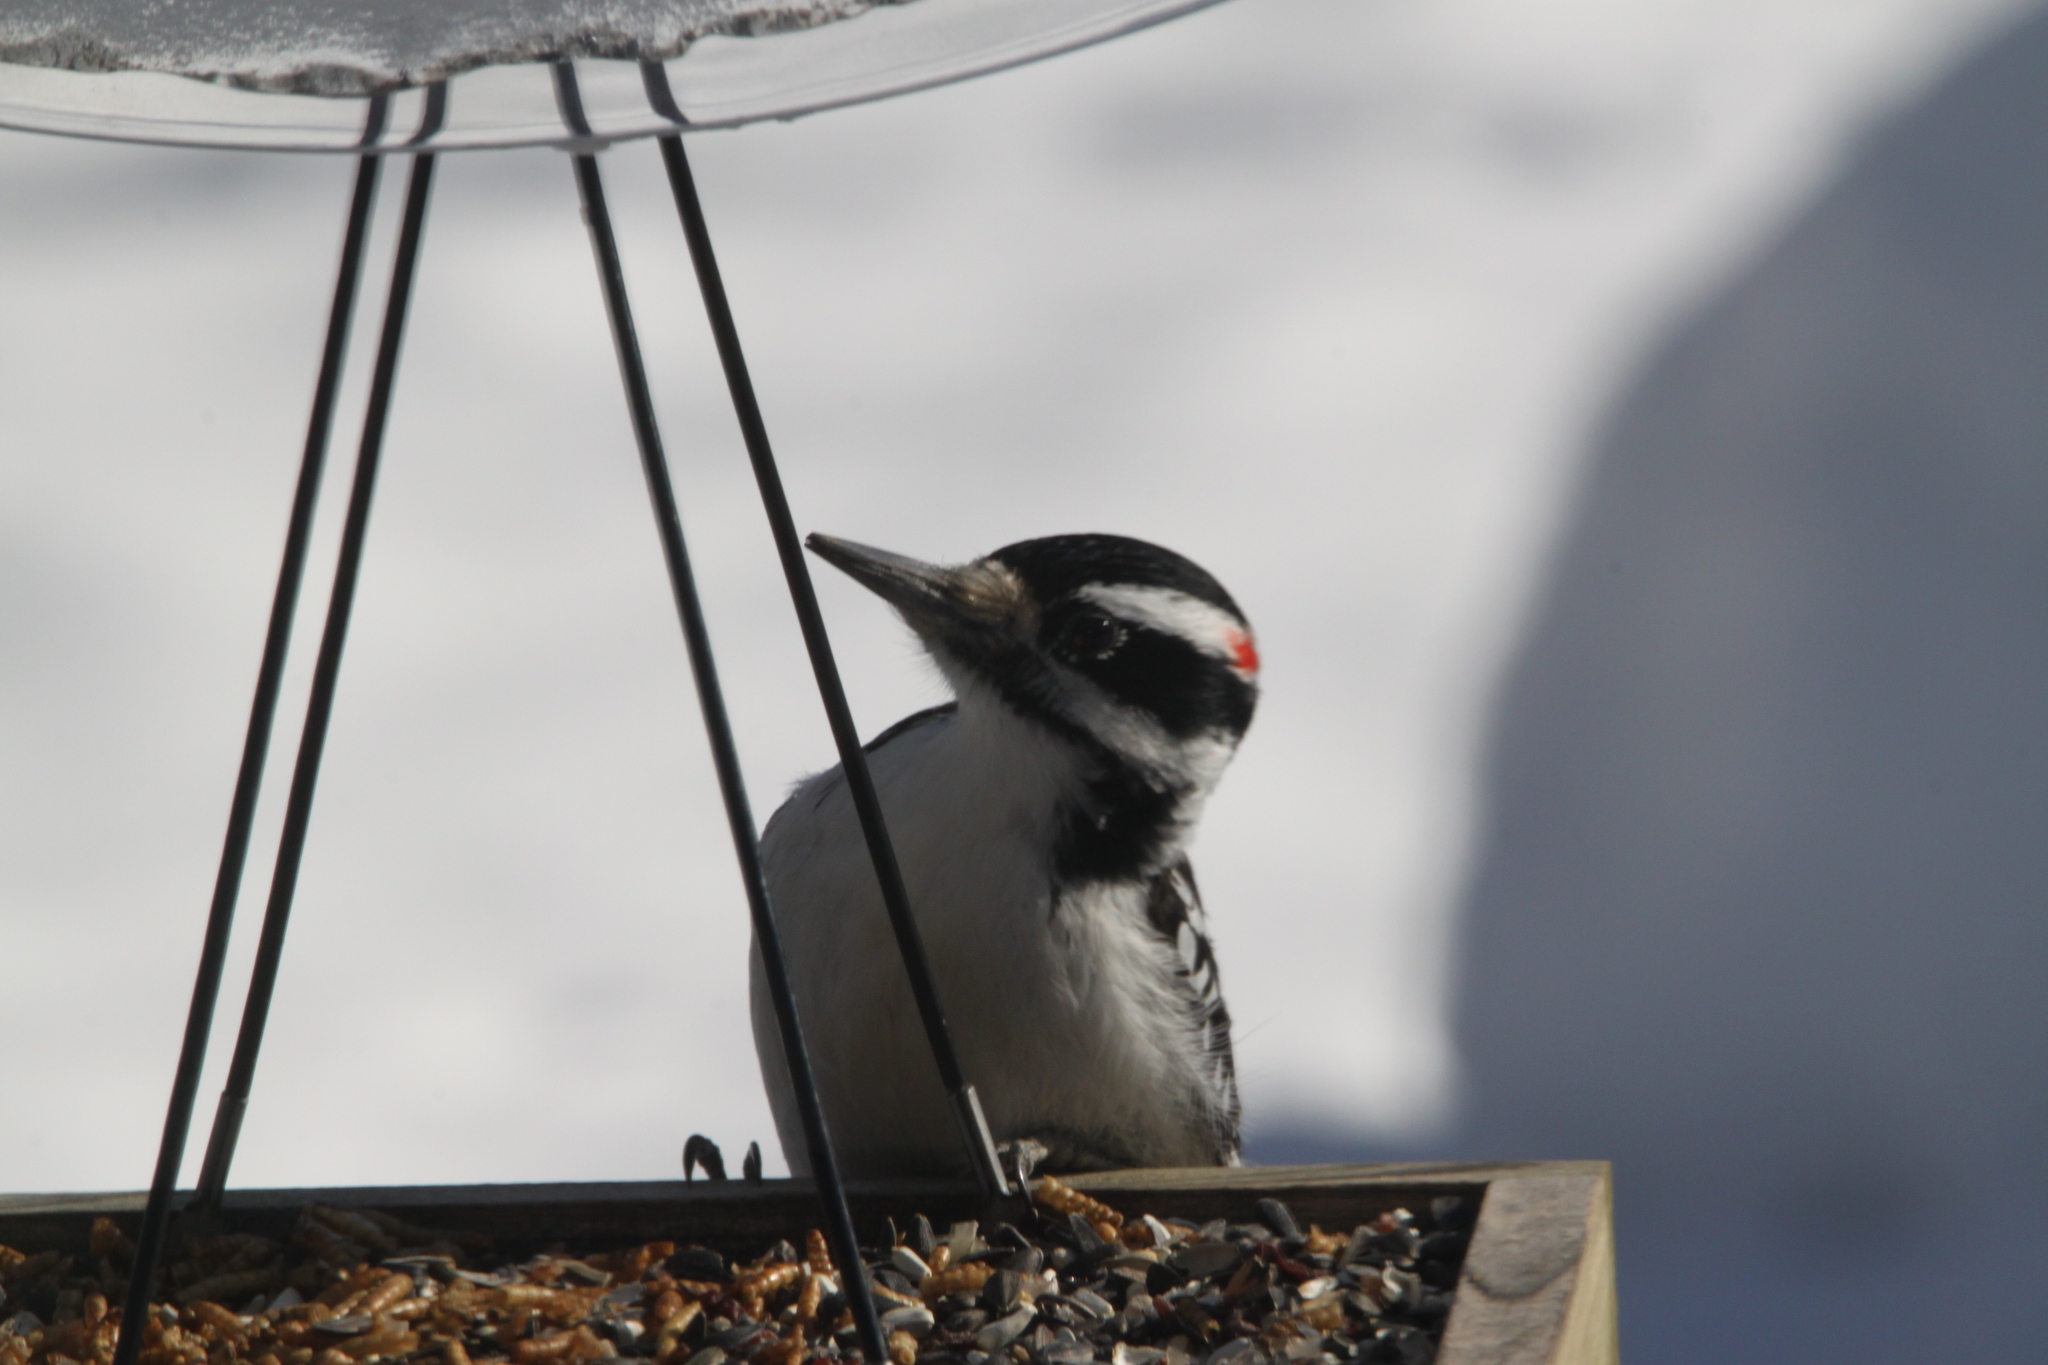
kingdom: Animalia
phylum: Chordata
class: Aves
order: Piciformes
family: Picidae
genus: Leuconotopicus
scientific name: Leuconotopicus villosus
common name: Hairy woodpecker
